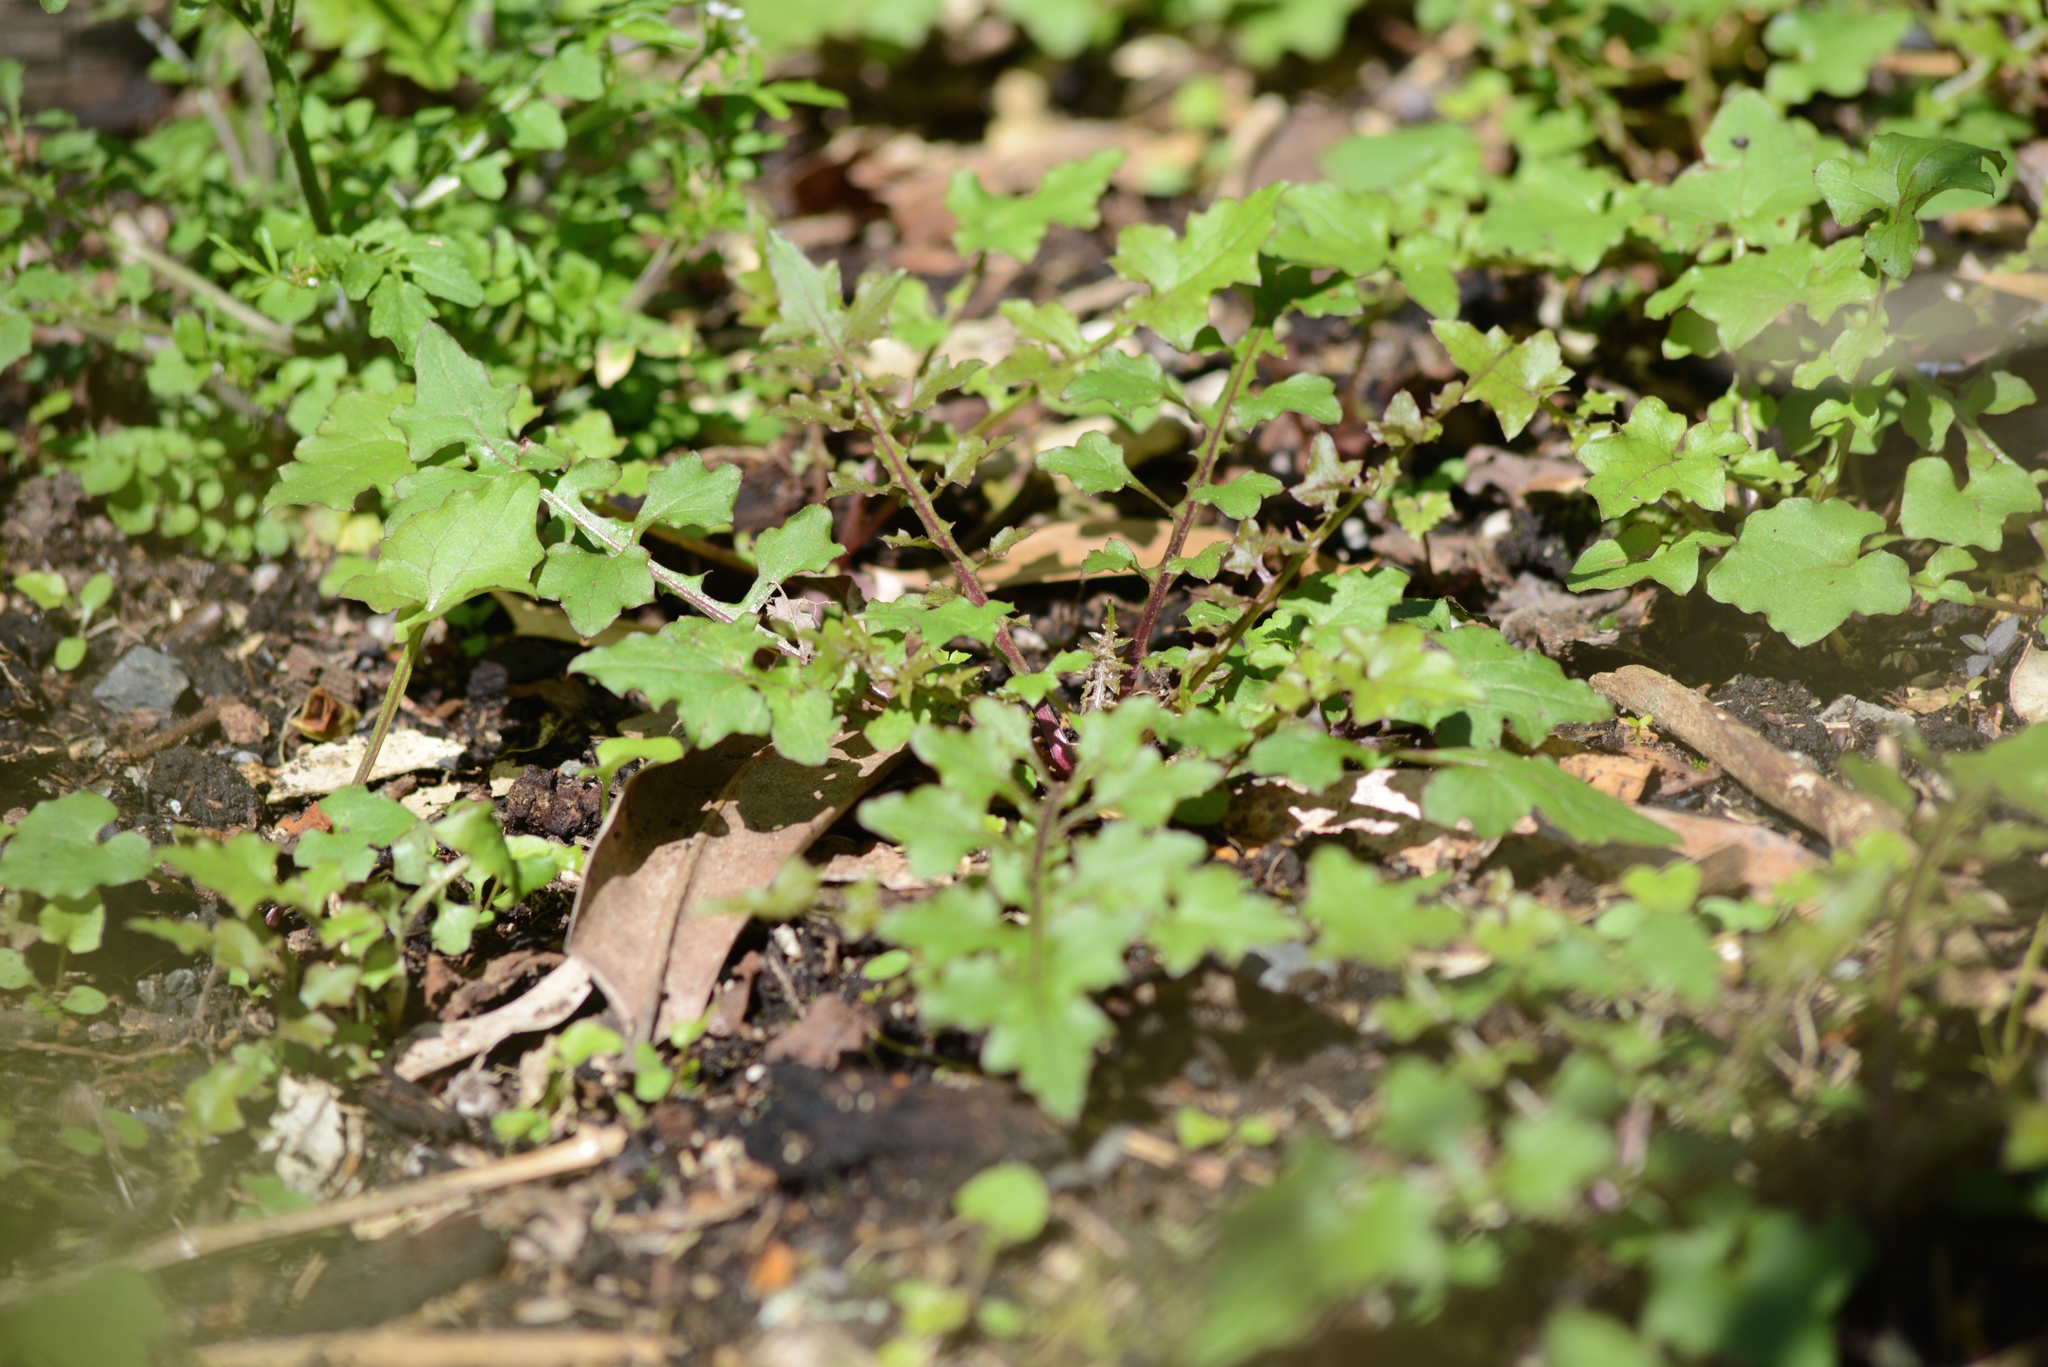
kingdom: Plantae
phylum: Tracheophyta
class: Magnoliopsida
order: Asterales
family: Asteraceae
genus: Mycelis
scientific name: Mycelis muralis
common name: Wall lettuce
